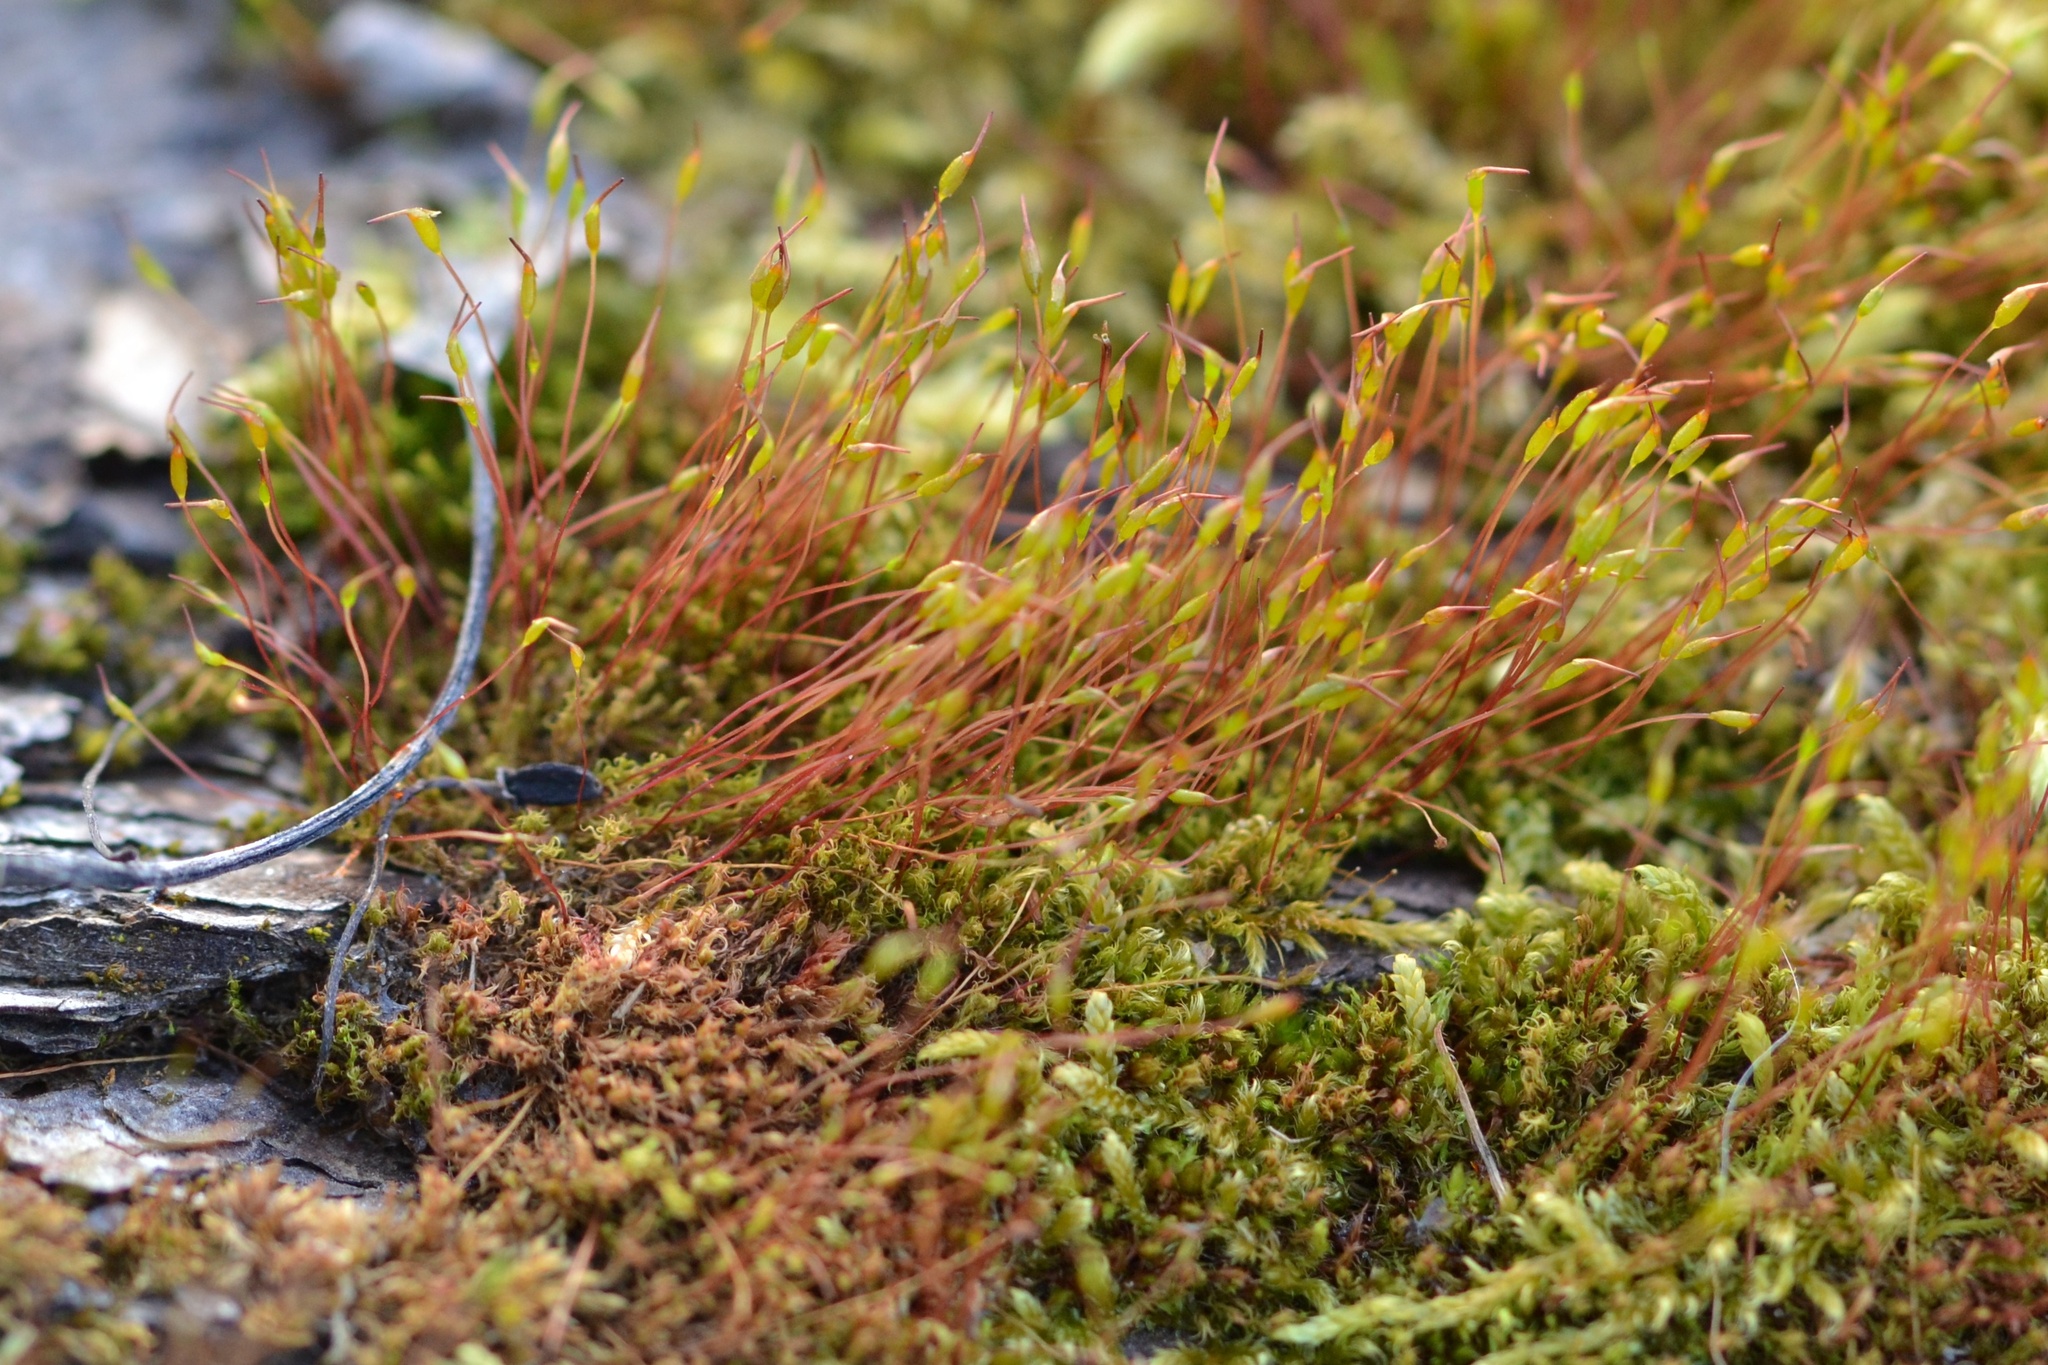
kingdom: Plantae
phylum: Bryophyta
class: Bryopsida
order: Dicranales
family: Ditrichaceae
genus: Ceratodon
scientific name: Ceratodon purpureus
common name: Redshank
